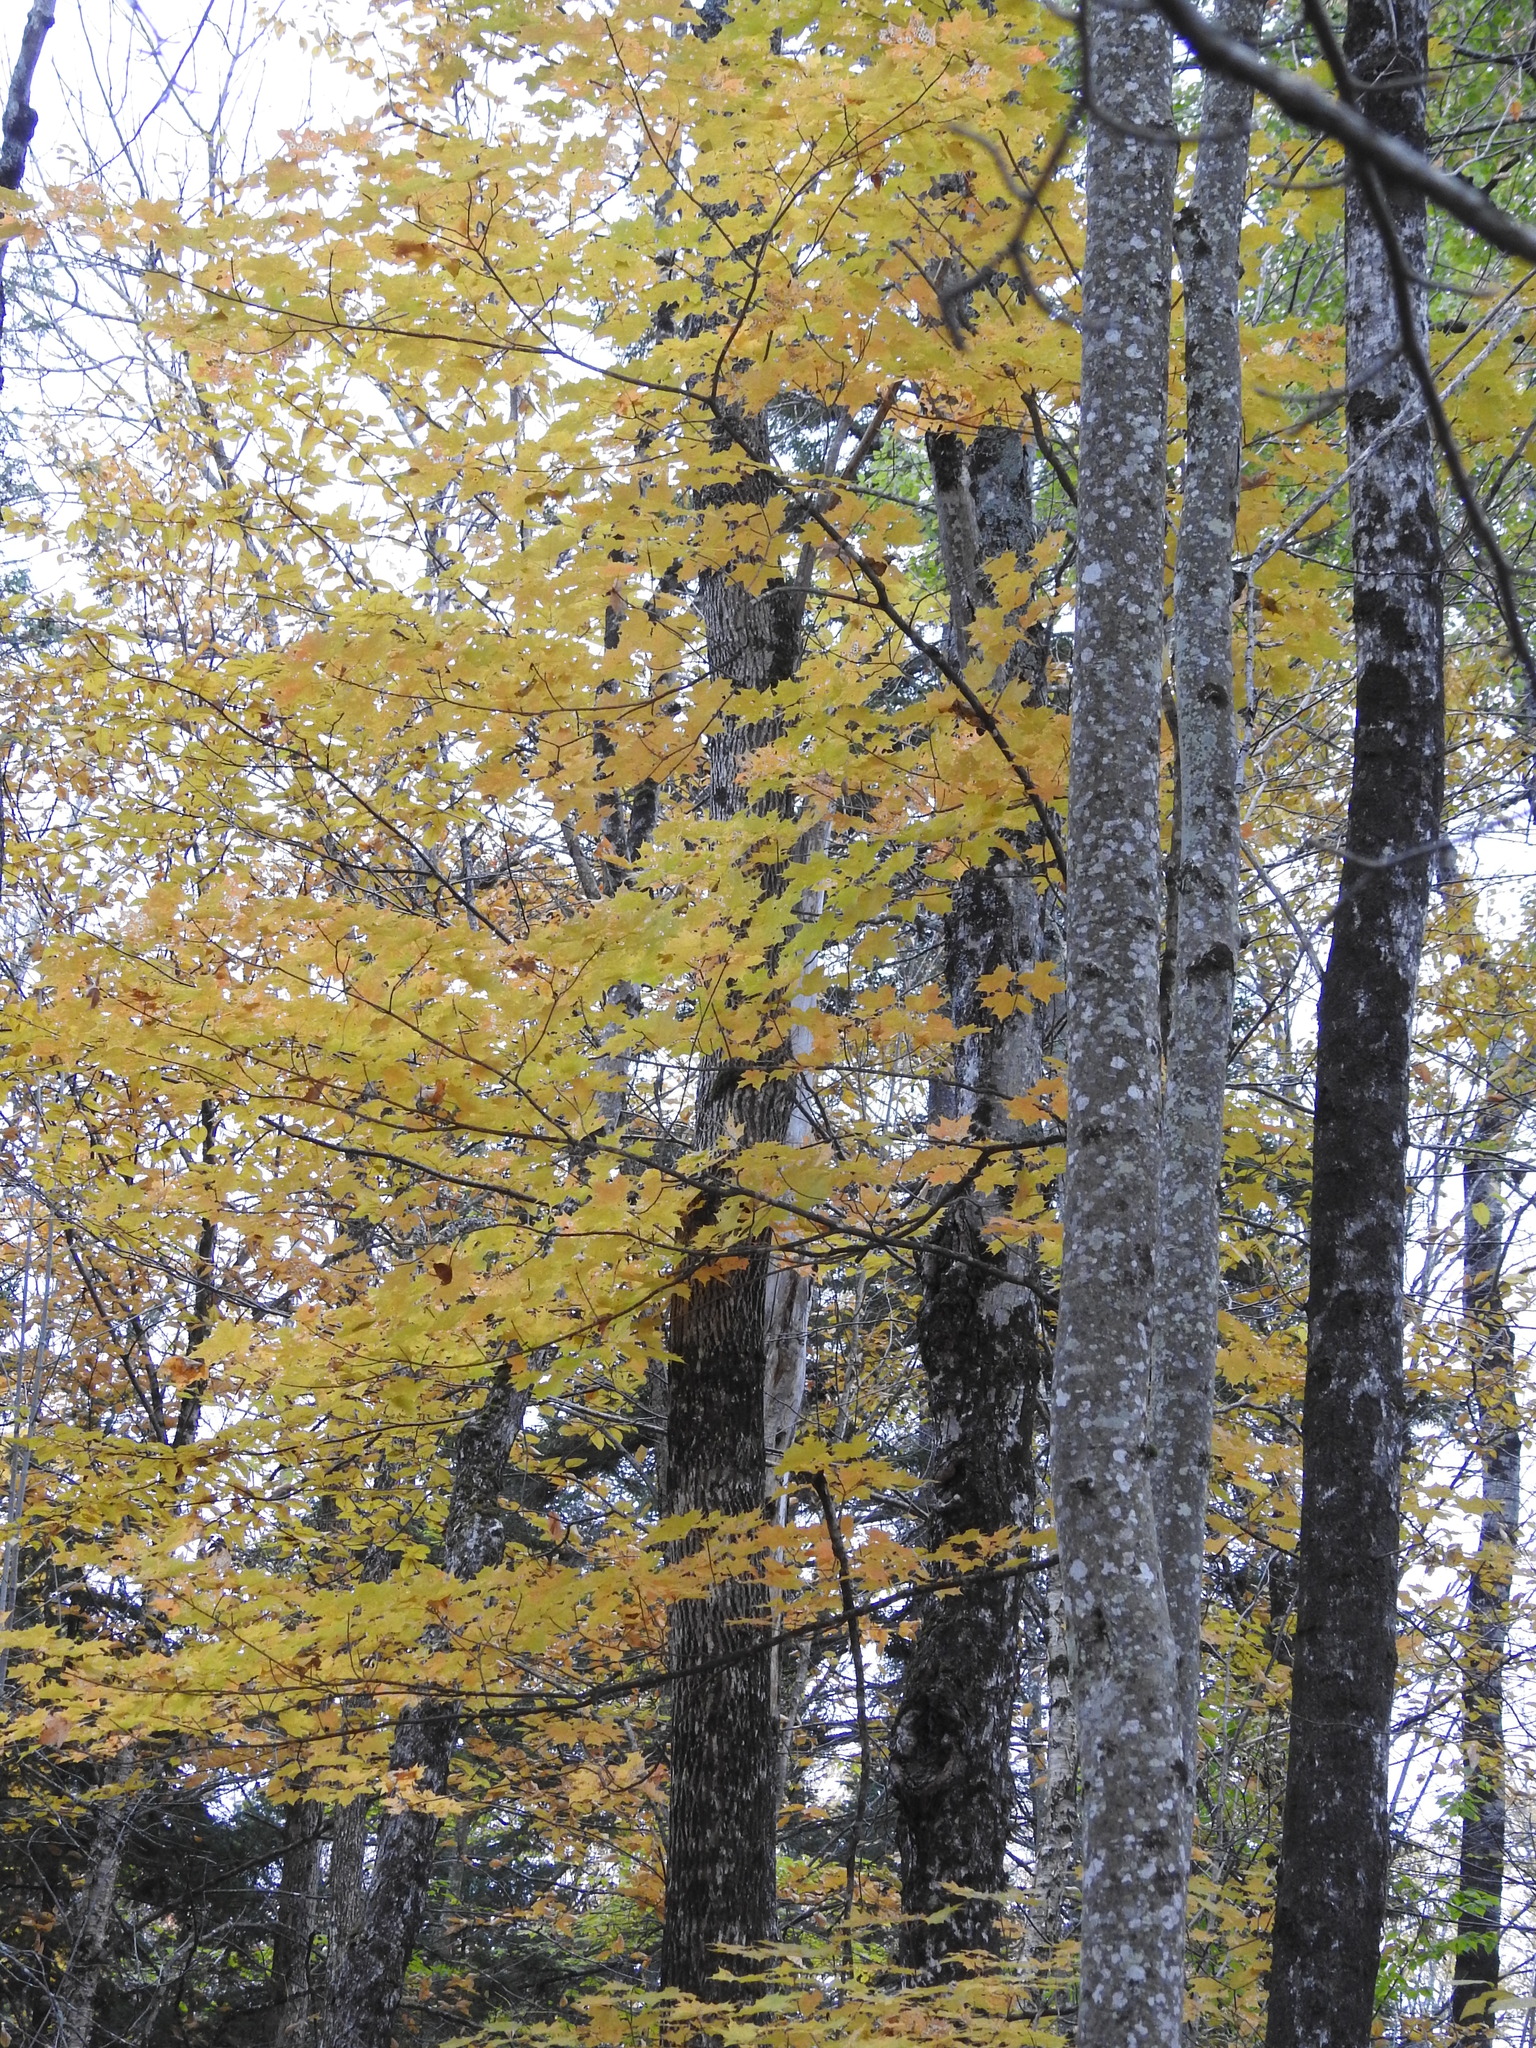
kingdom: Plantae
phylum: Tracheophyta
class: Magnoliopsida
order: Sapindales
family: Sapindaceae
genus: Acer
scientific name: Acer saccharum
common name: Sugar maple
